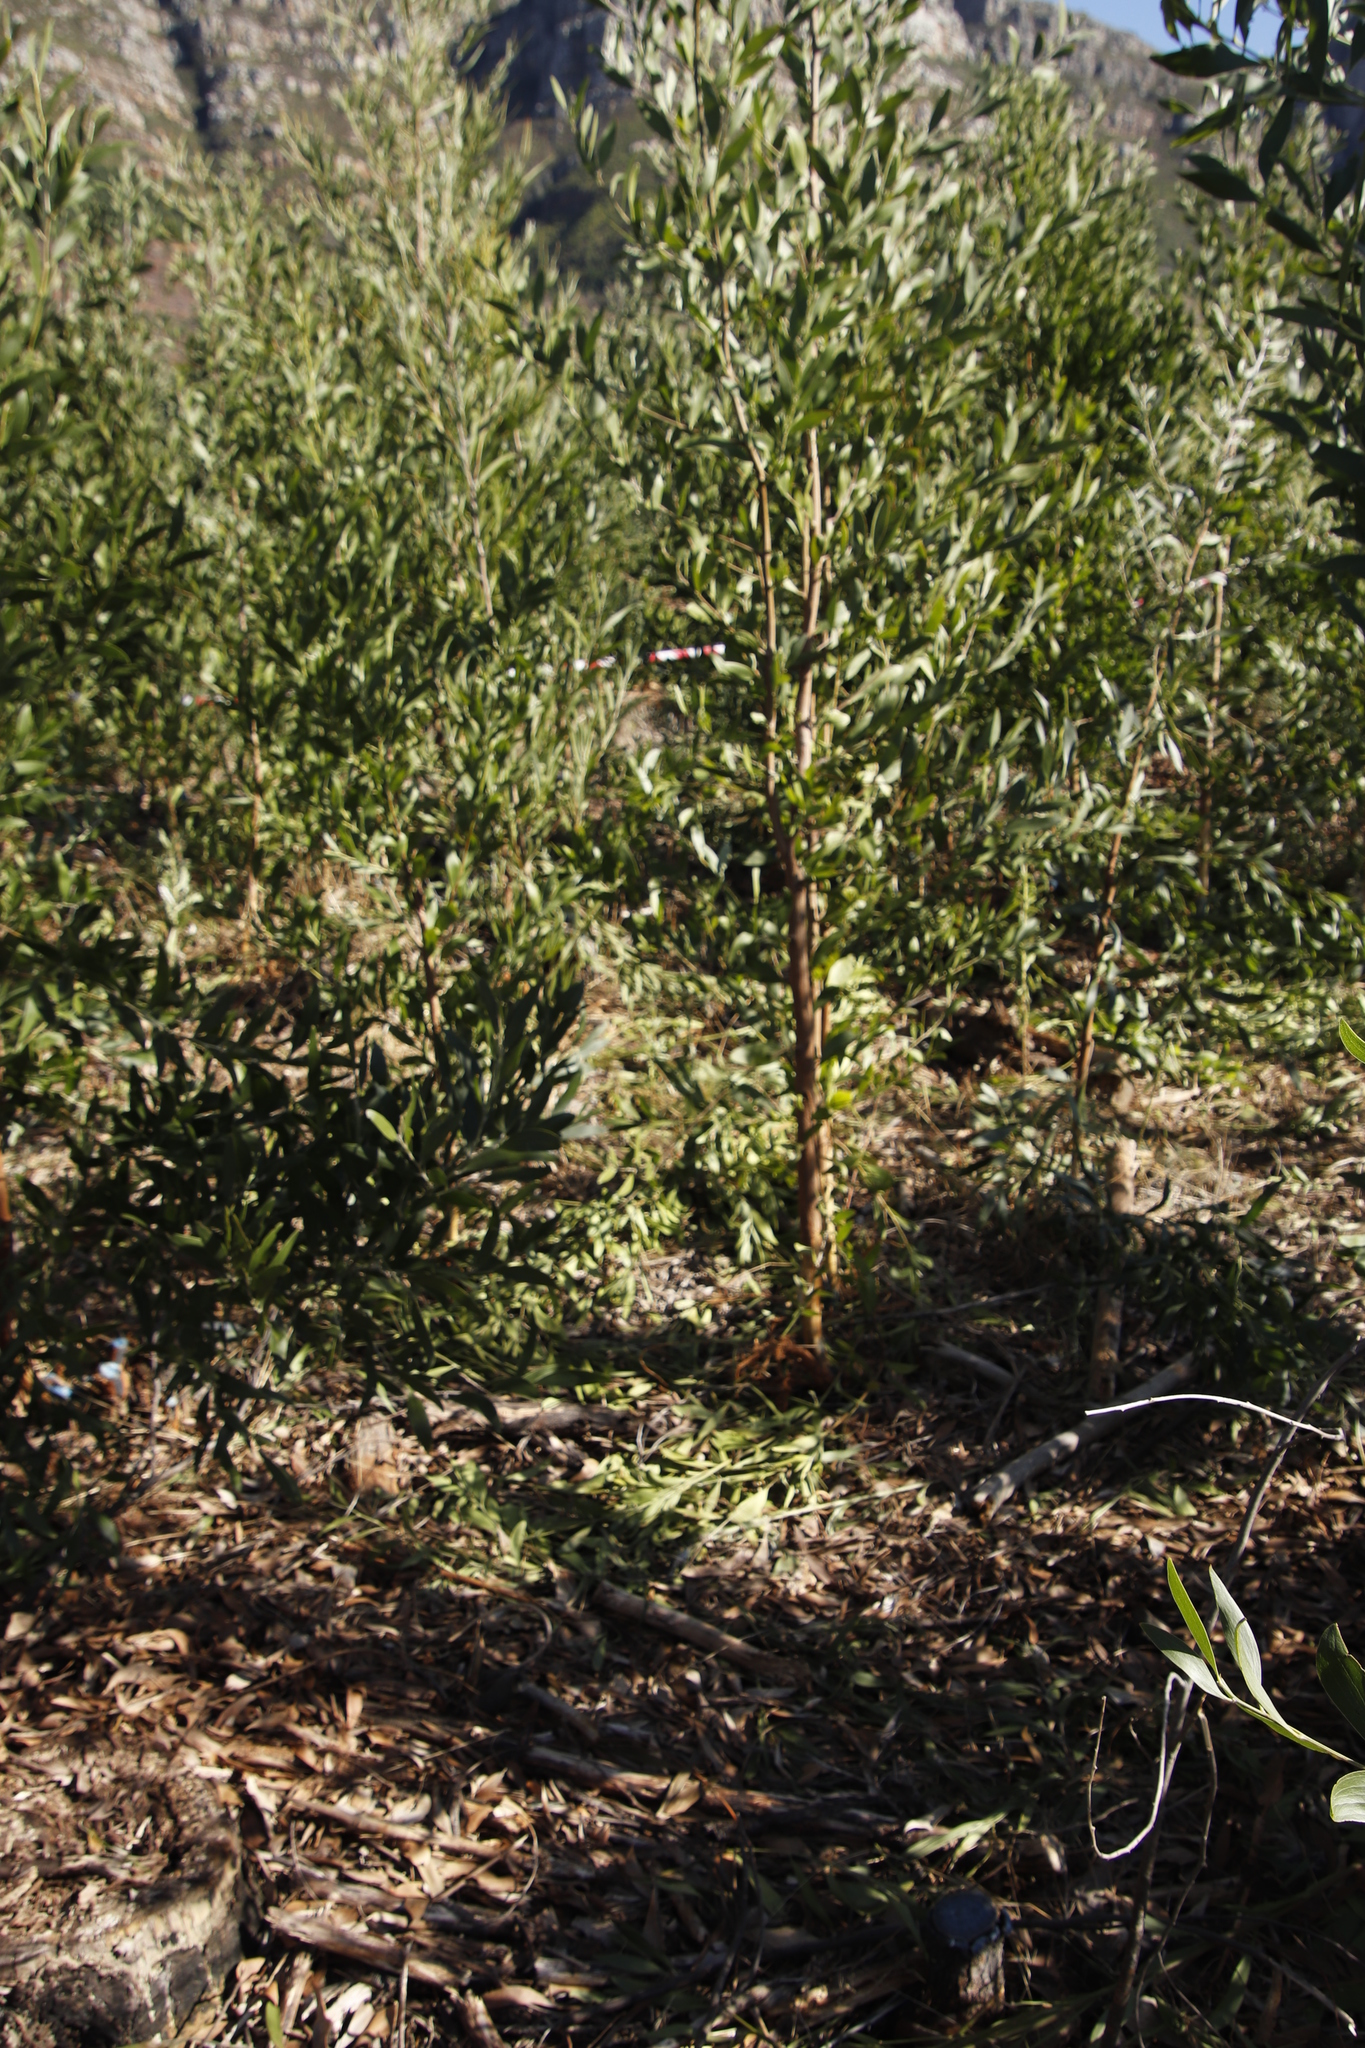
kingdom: Plantae
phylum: Tracheophyta
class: Magnoliopsida
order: Fabales
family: Fabaceae
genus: Acacia
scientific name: Acacia melanoxylon
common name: Blackwood
